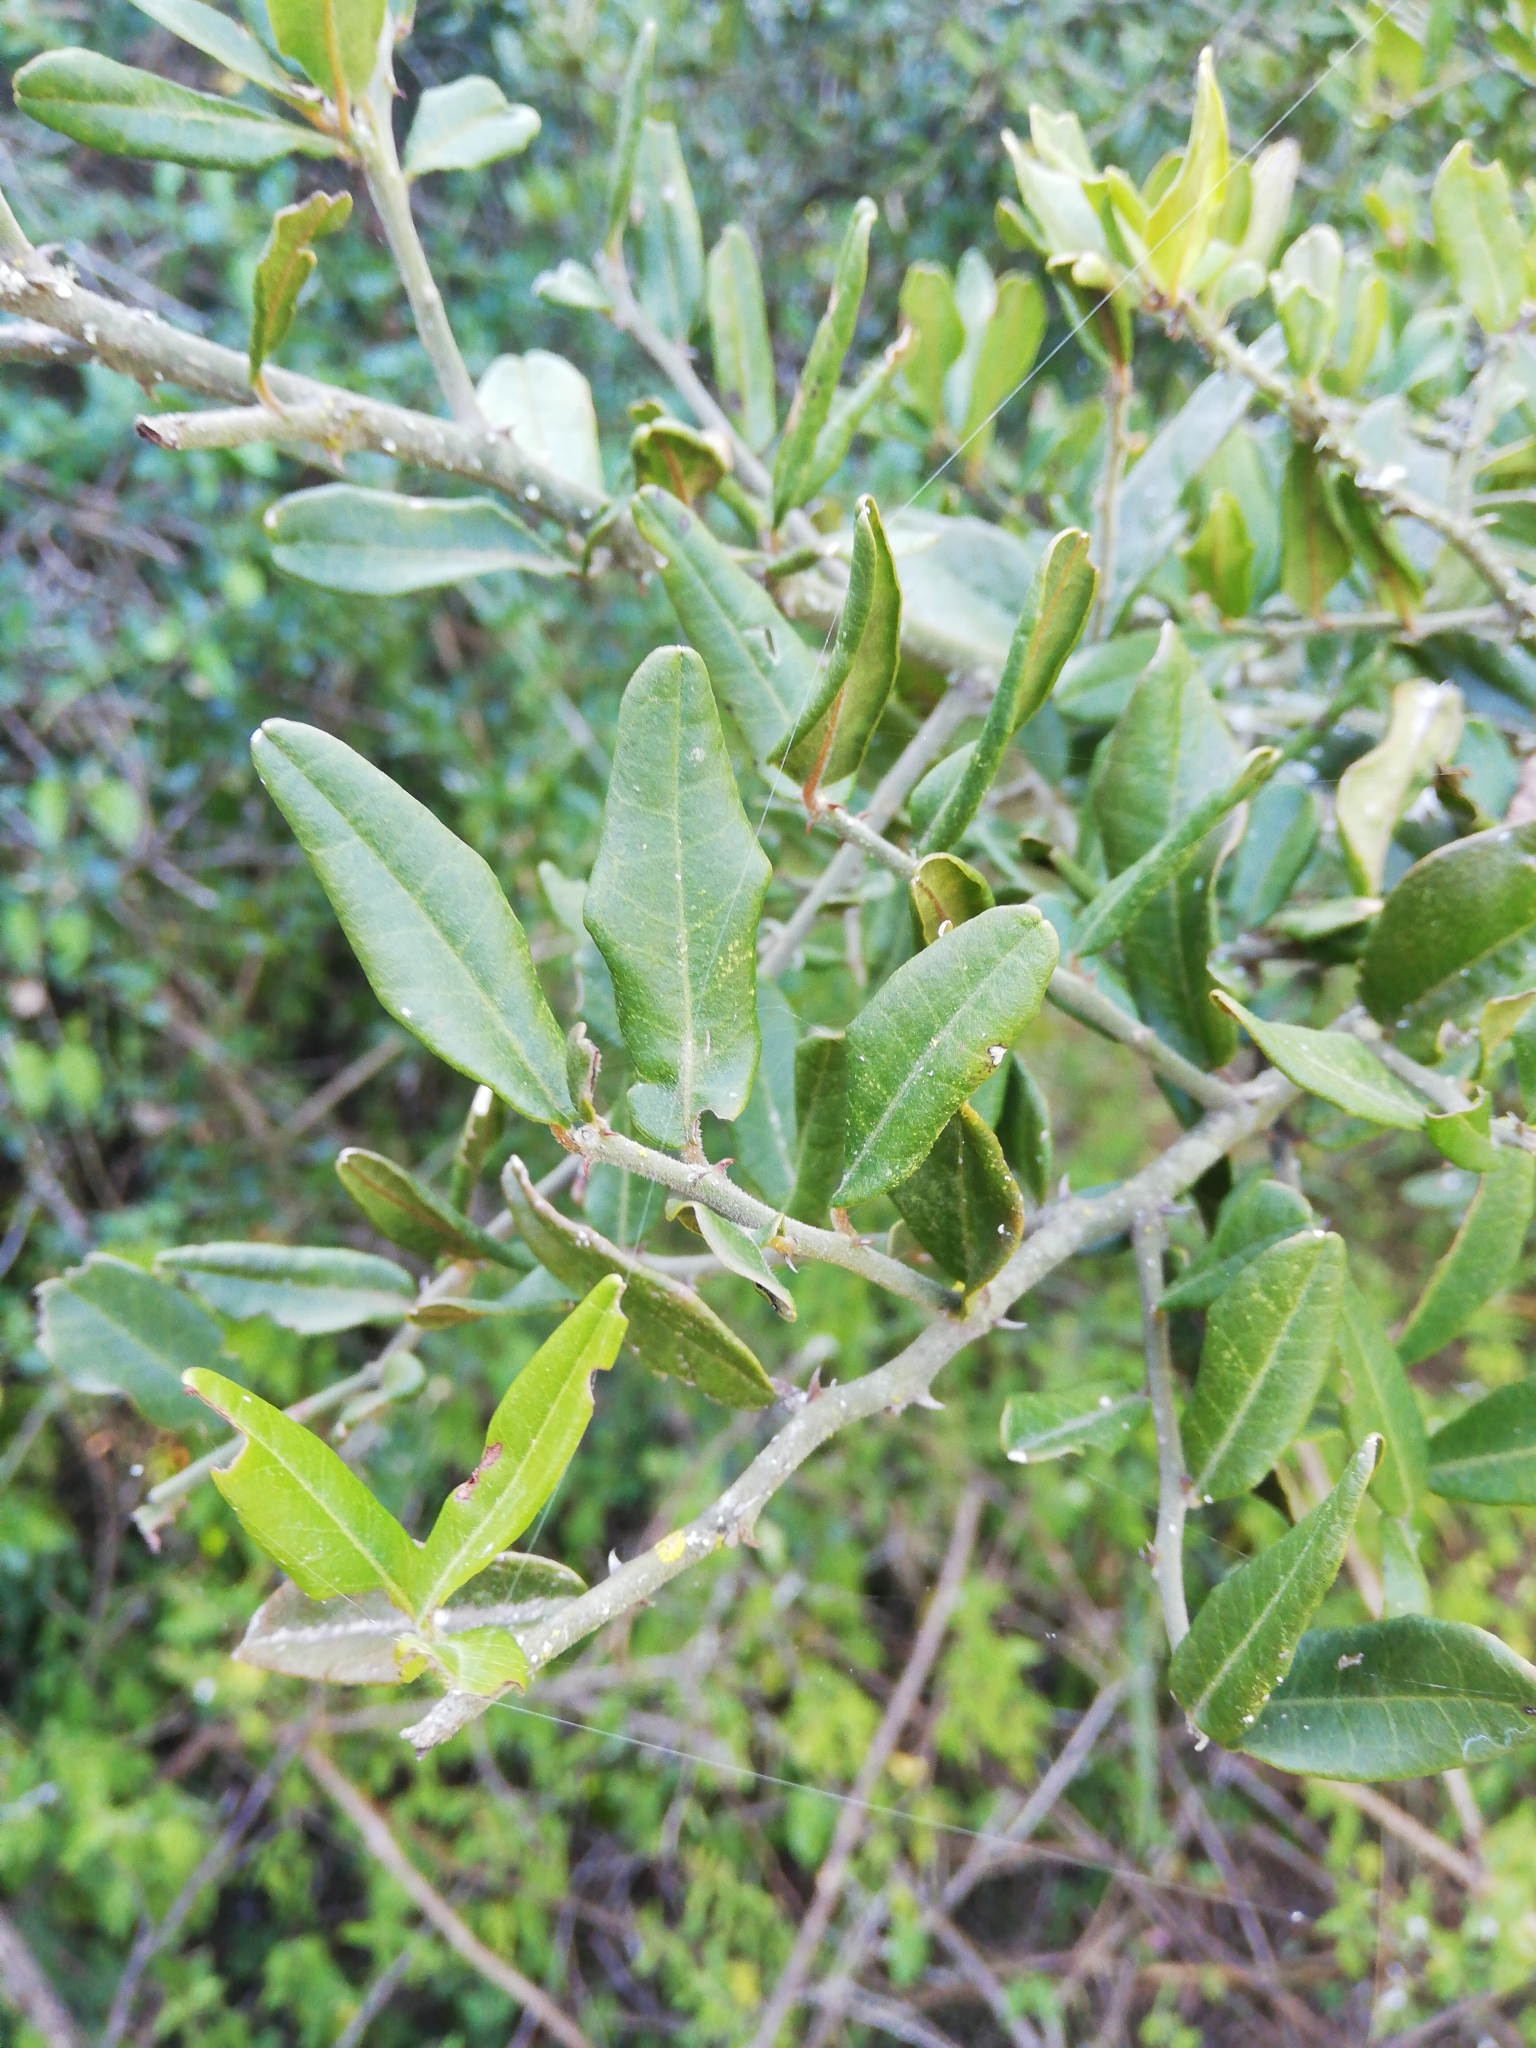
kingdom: Plantae
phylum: Tracheophyta
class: Magnoliopsida
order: Brassicales
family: Capparaceae
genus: Capparis
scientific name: Capparis sepiaria
